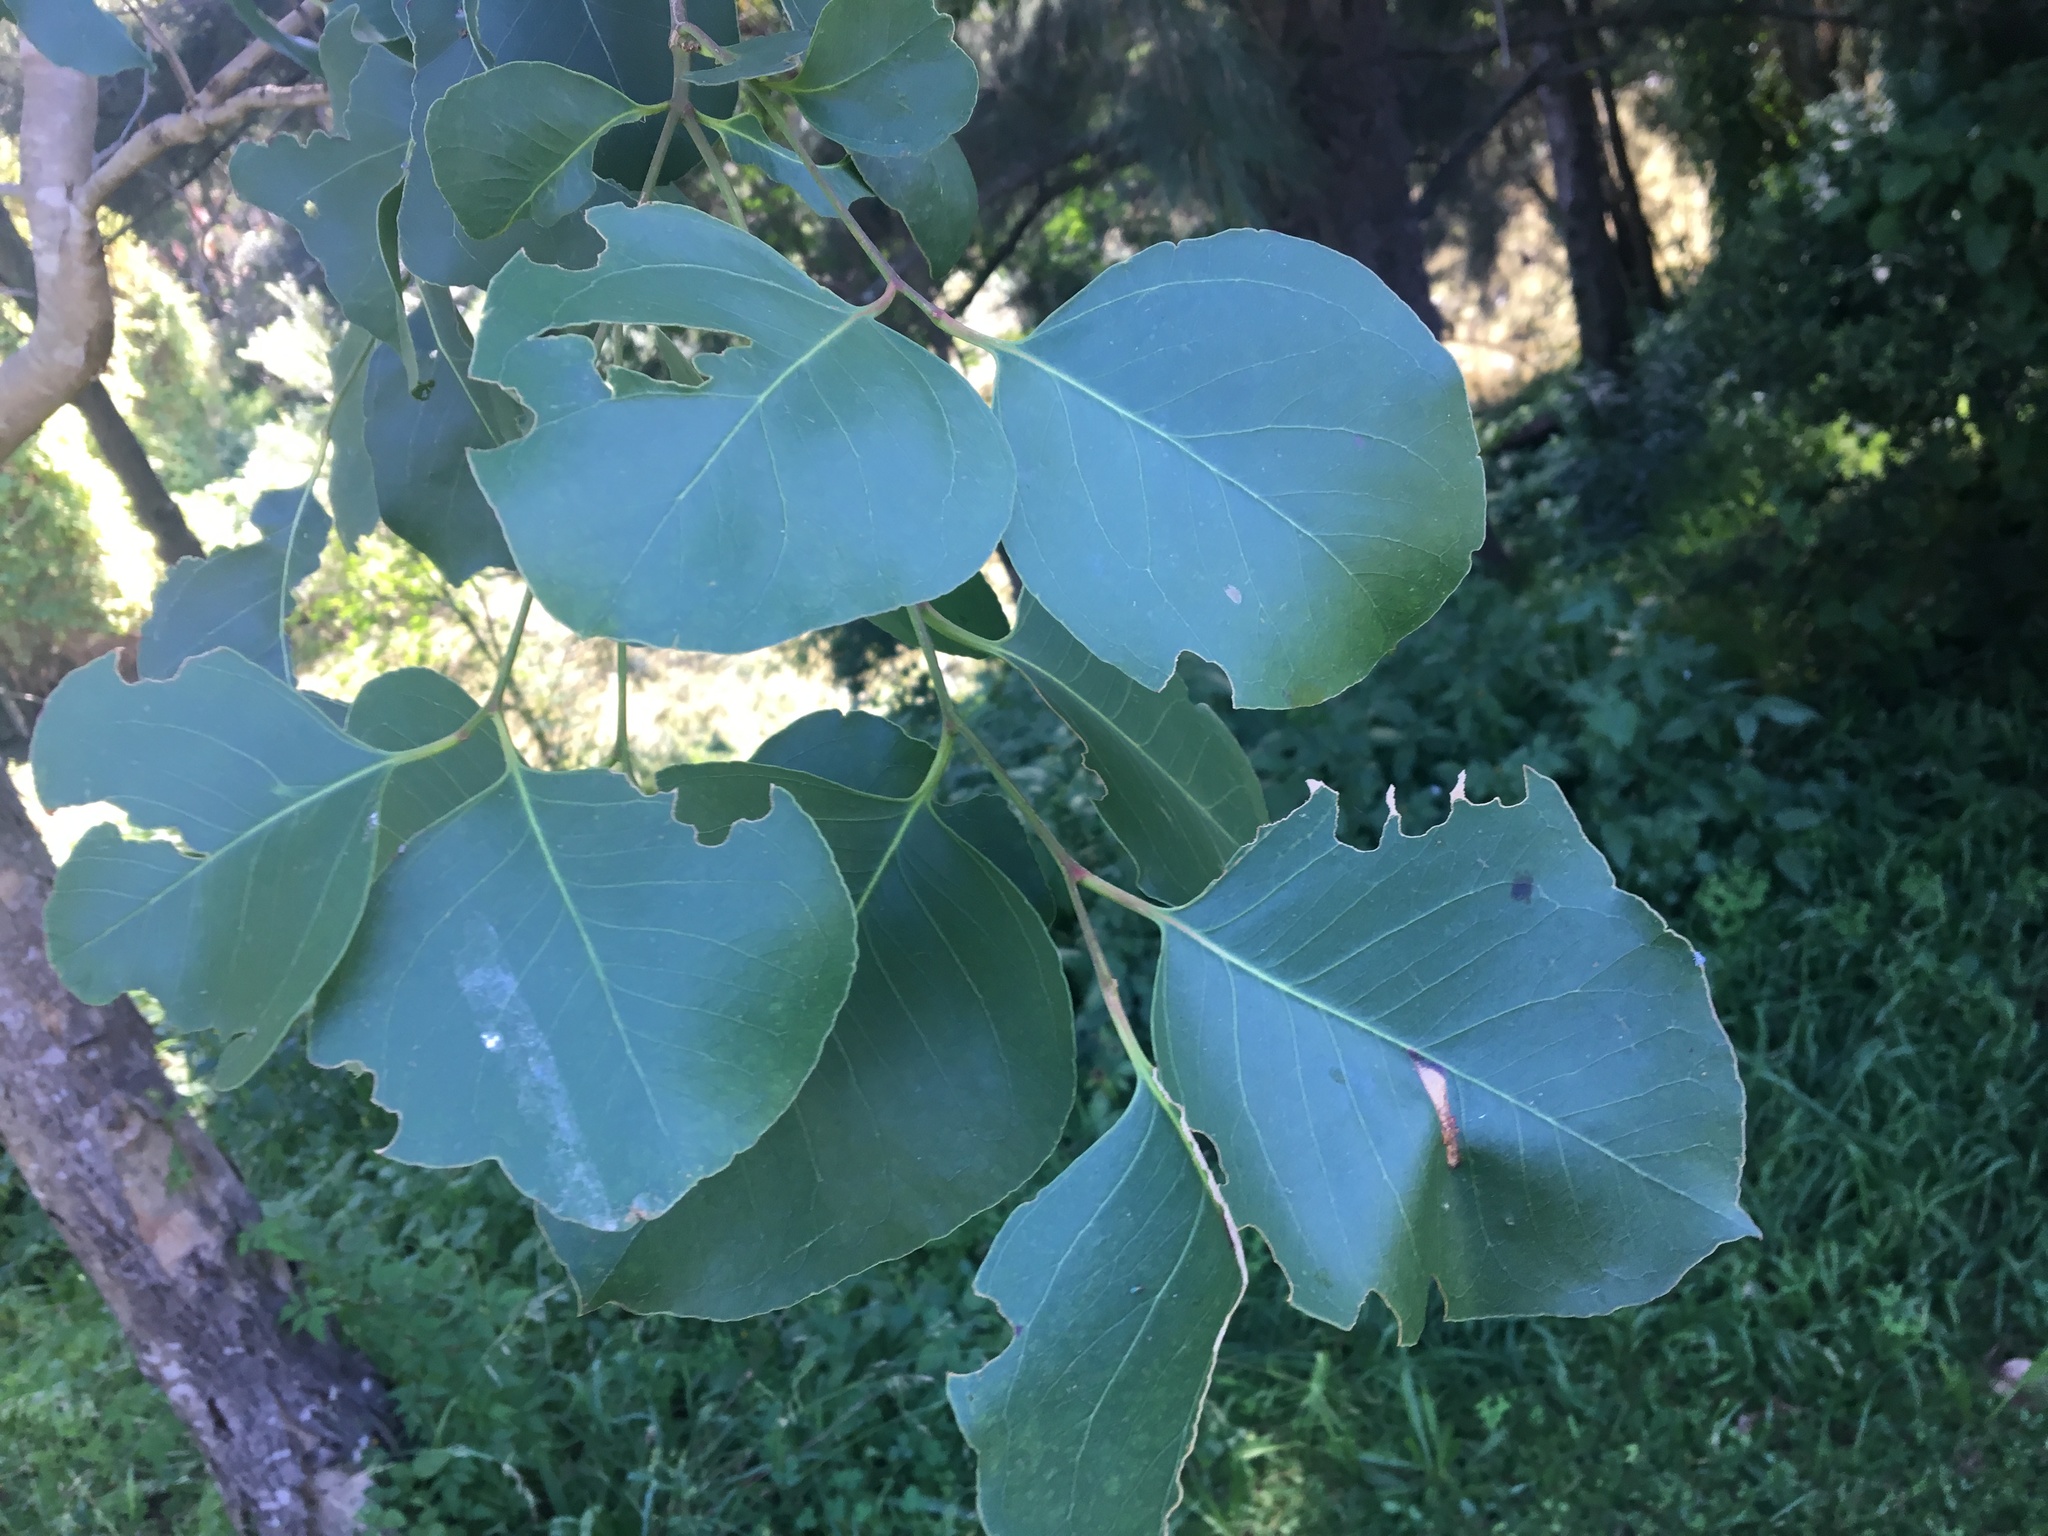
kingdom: Plantae
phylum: Tracheophyta
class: Magnoliopsida
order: Myrtales
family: Myrtaceae
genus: Eucalyptus
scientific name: Eucalyptus amplifolia
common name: Cabbage gum
